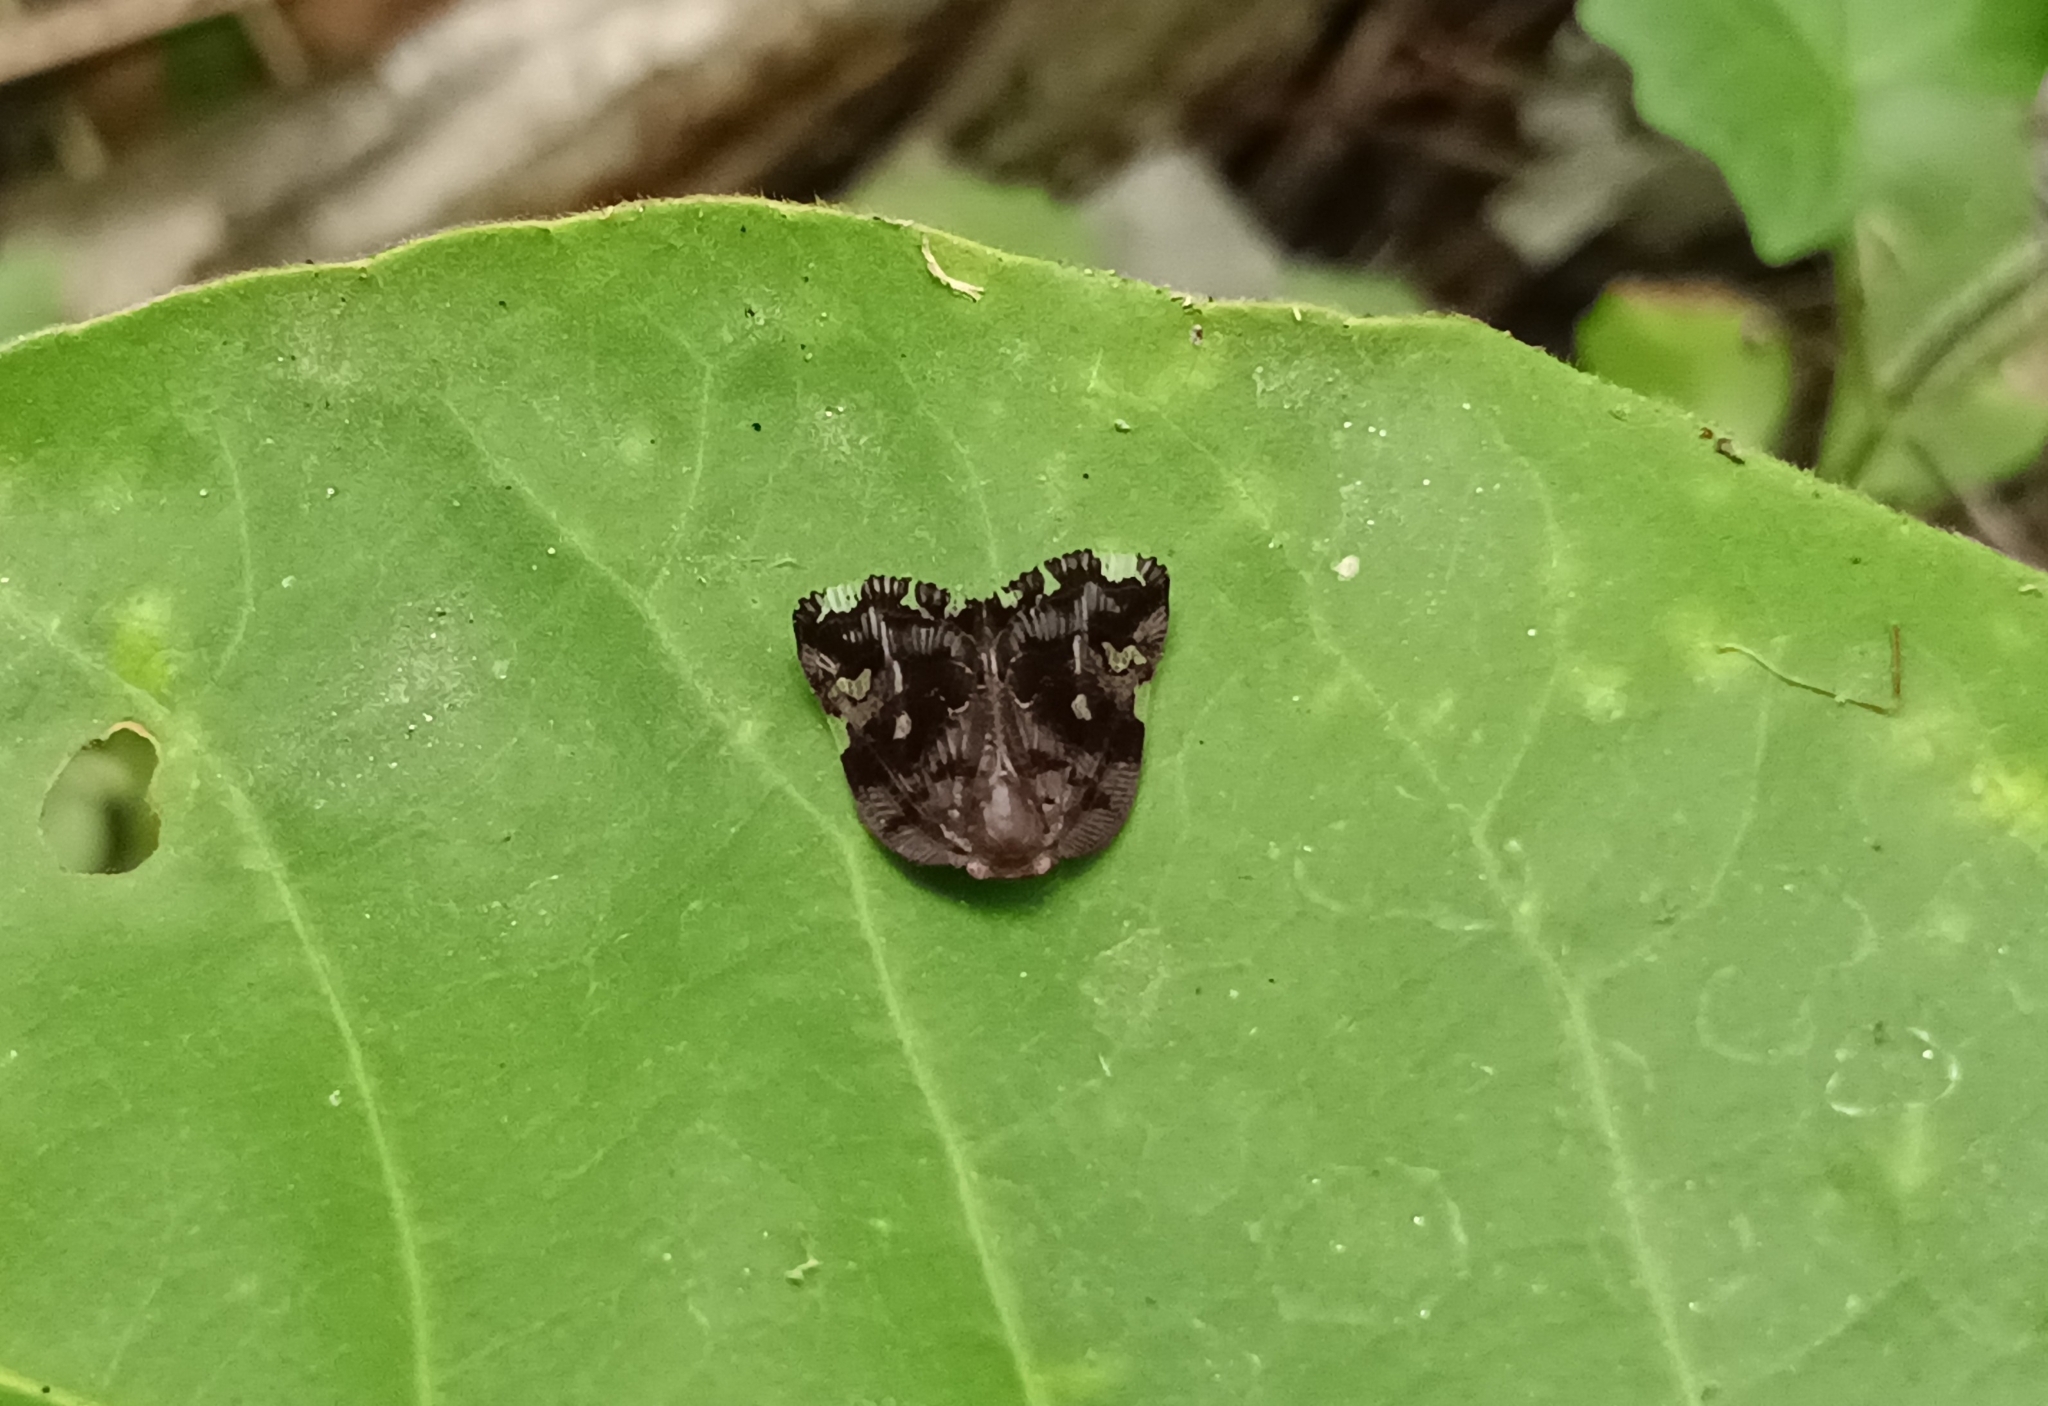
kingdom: Animalia
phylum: Arthropoda
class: Insecta
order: Hemiptera
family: Ricaniidae
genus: Ricania
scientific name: Ricania speculum
